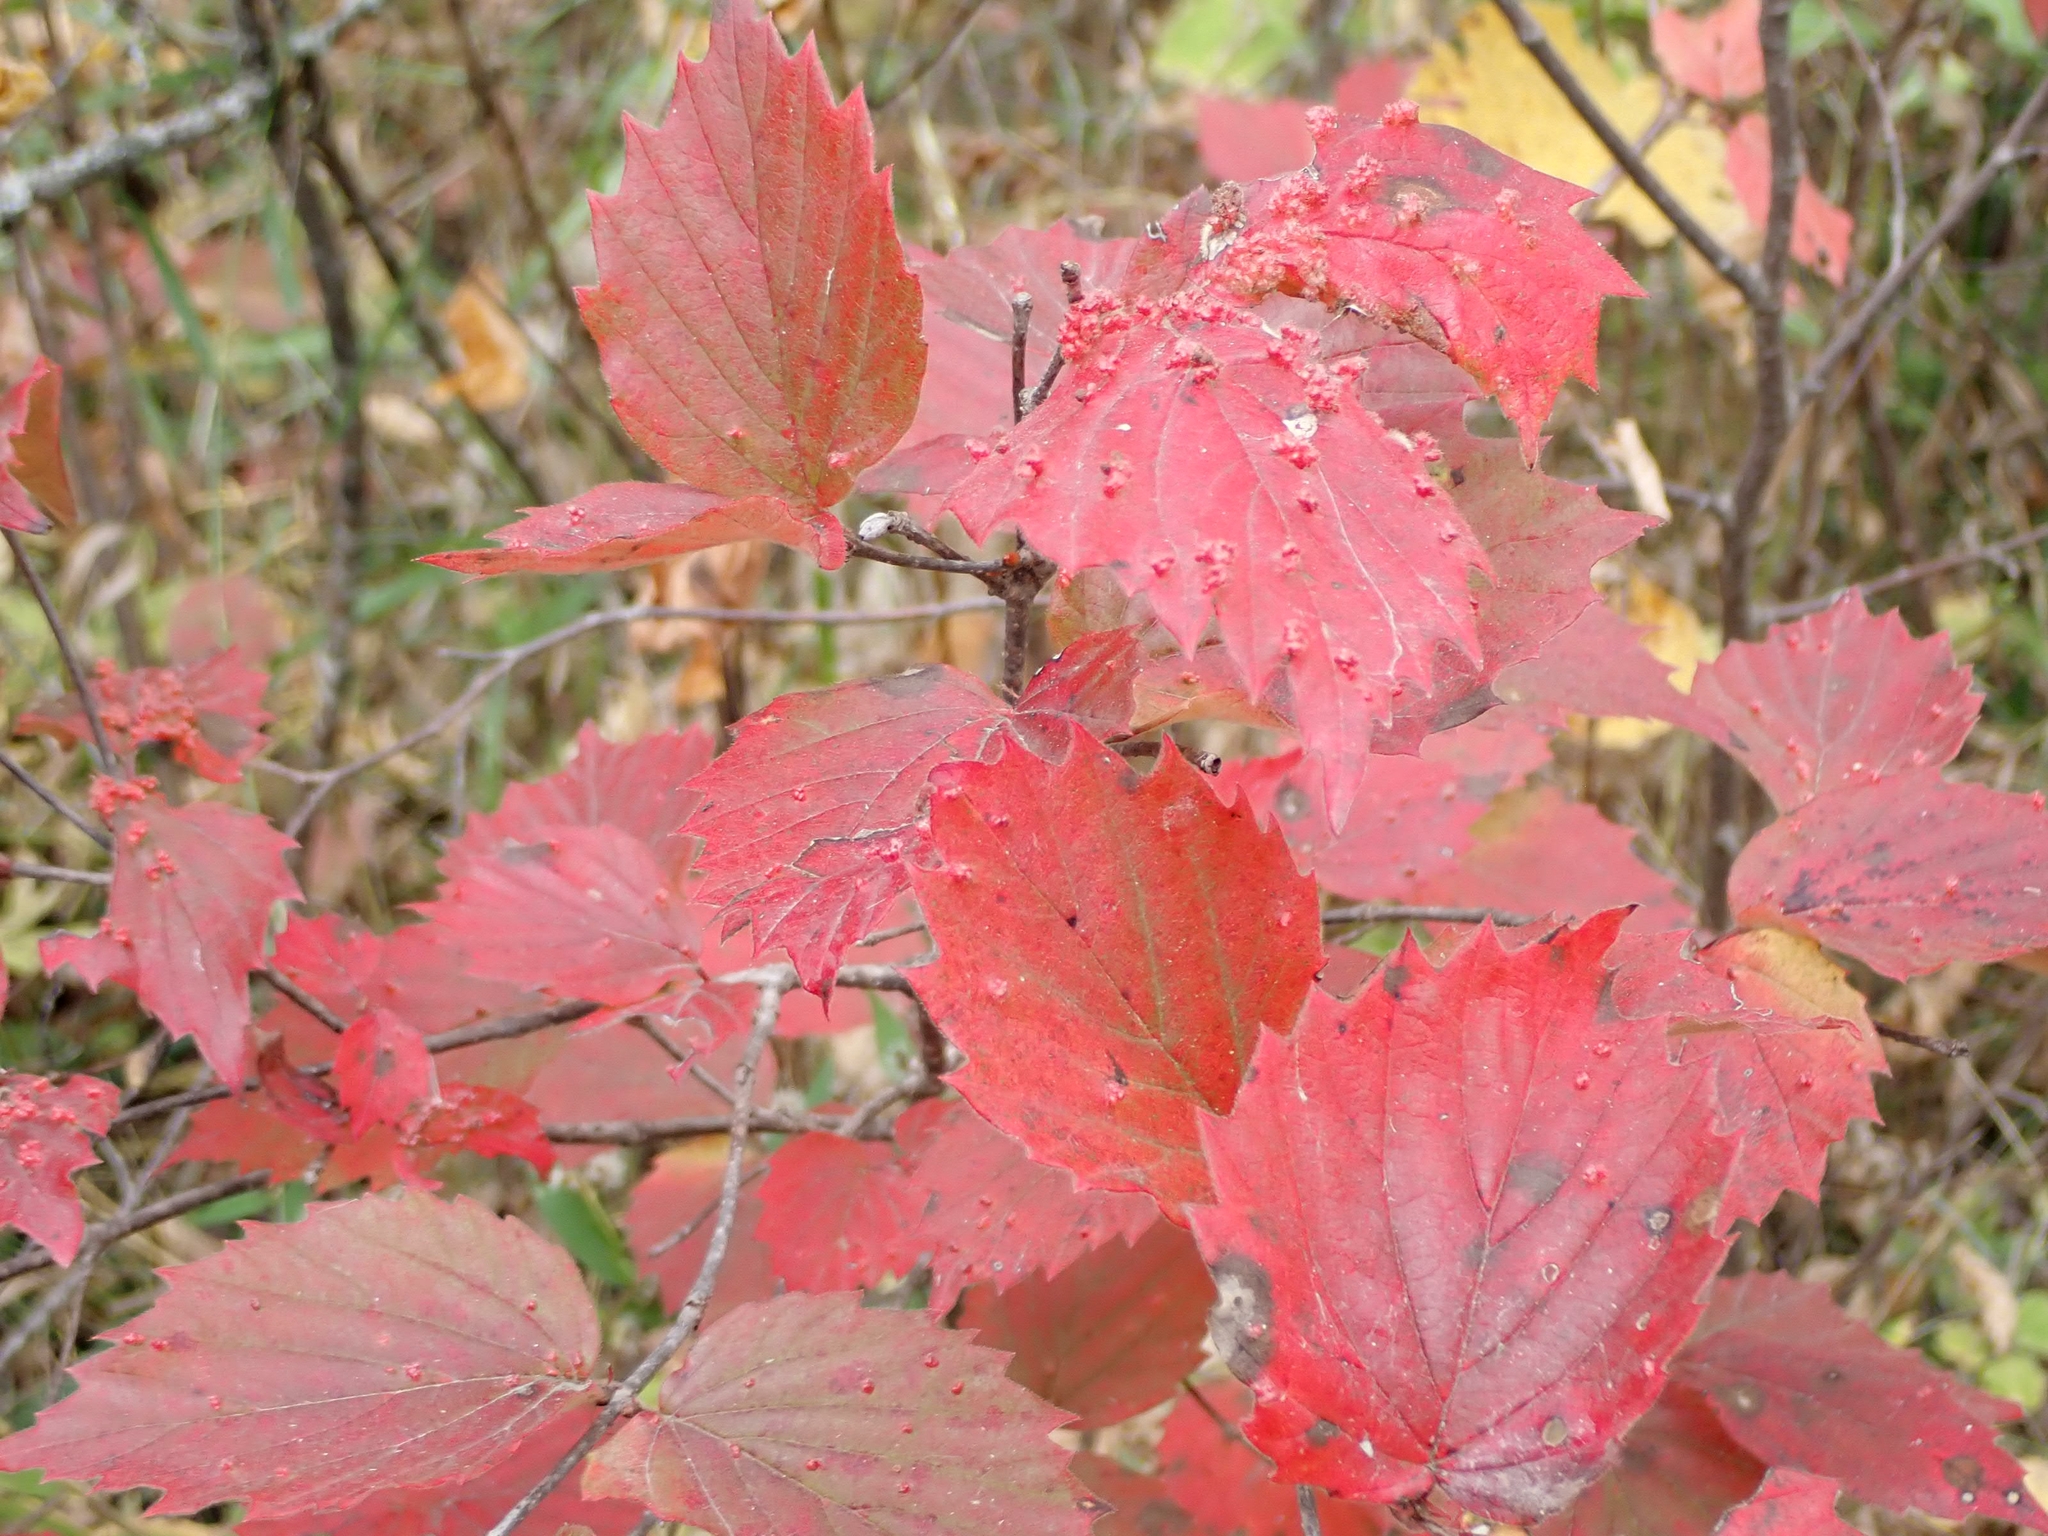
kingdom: Plantae
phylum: Tracheophyta
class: Magnoliopsida
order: Dipsacales
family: Viburnaceae
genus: Viburnum
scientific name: Viburnum rafinesqueanum
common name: Downy arrow-wood
